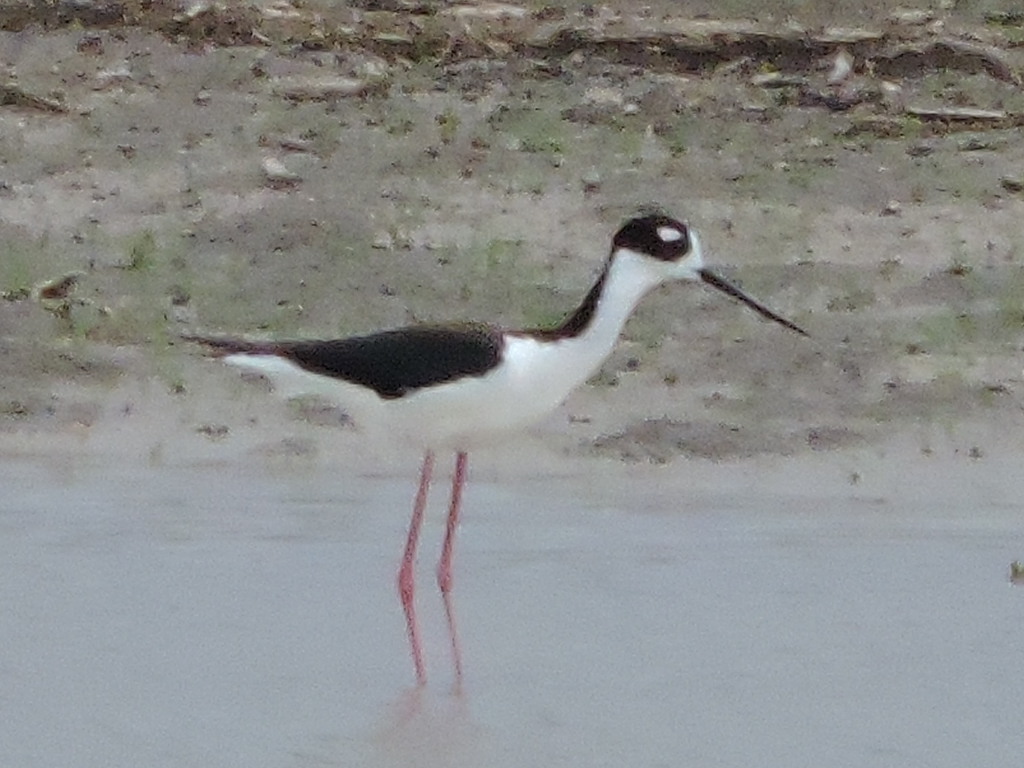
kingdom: Animalia
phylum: Chordata
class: Aves
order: Charadriiformes
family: Recurvirostridae
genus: Himantopus
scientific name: Himantopus mexicanus
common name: Black-necked stilt
